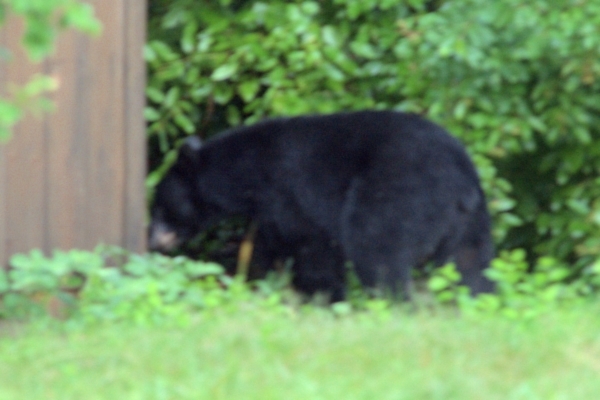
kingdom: Animalia
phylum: Chordata
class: Mammalia
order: Carnivora
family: Ursidae
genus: Ursus
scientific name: Ursus americanus
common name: American black bear
